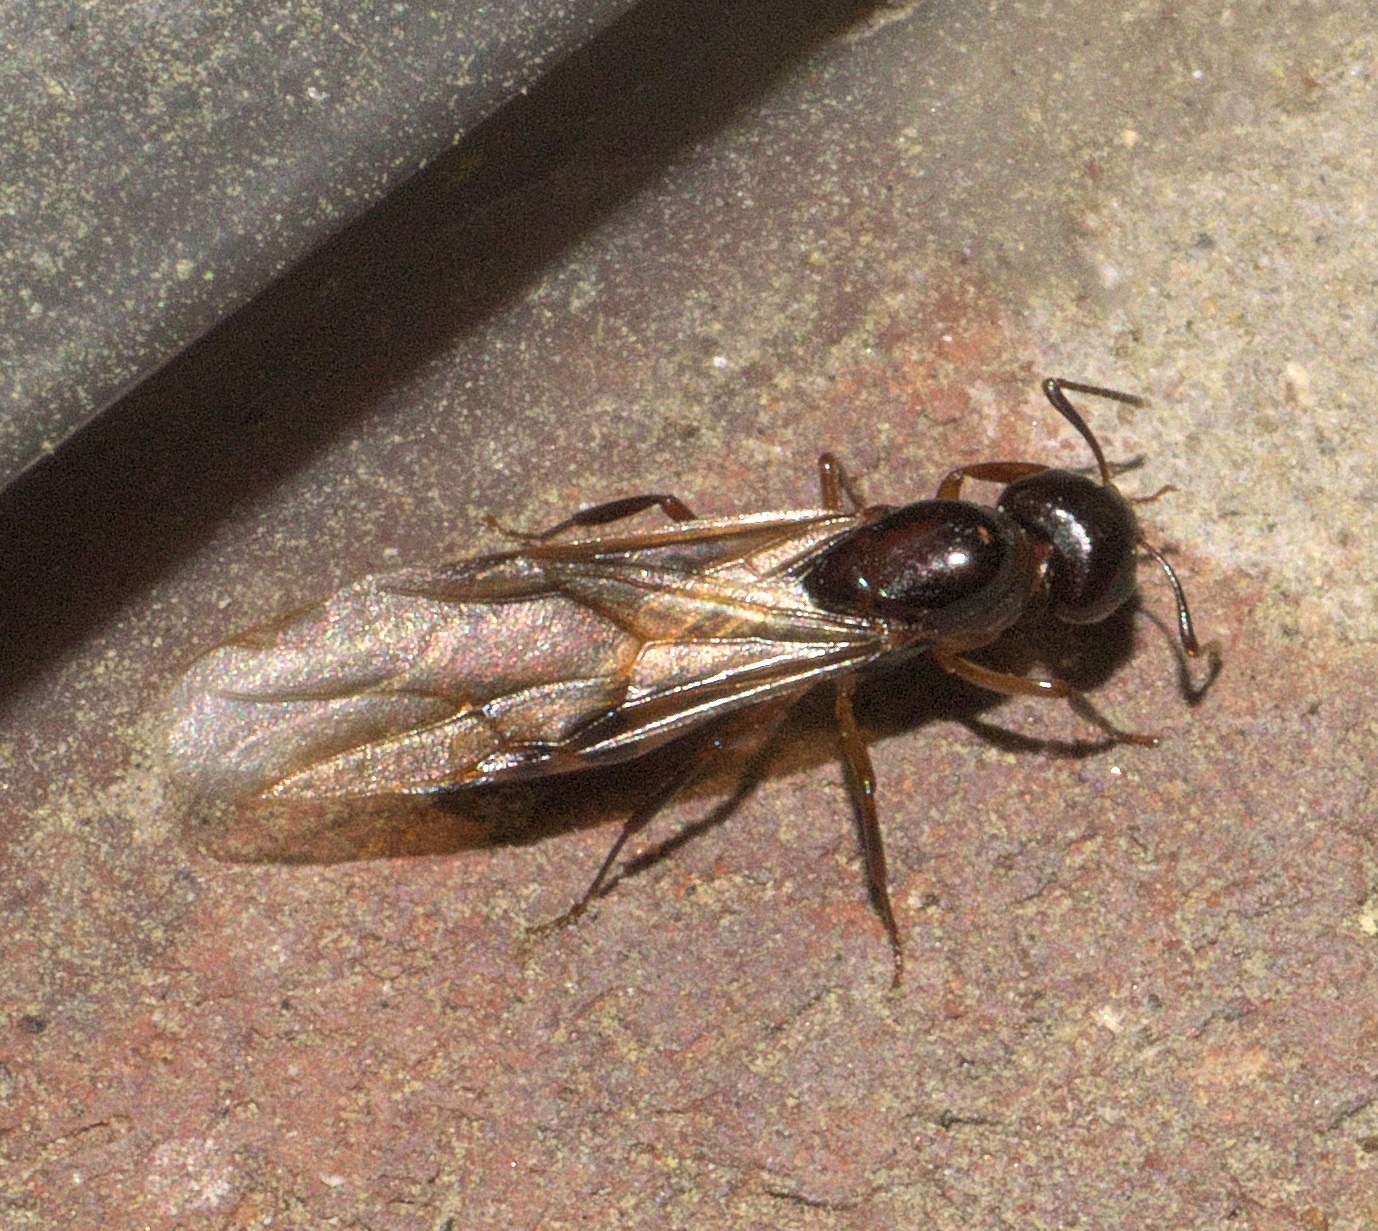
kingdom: Animalia
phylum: Arthropoda
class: Insecta
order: Hymenoptera
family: Formicidae
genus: Camponotus
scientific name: Camponotus subbarbatus
